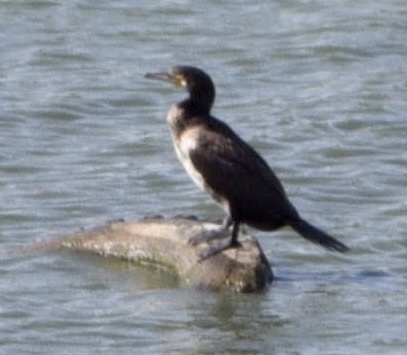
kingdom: Animalia
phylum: Chordata
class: Aves
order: Suliformes
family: Phalacrocoracidae
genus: Phalacrocorax
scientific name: Phalacrocorax carbo
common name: Great cormorant
